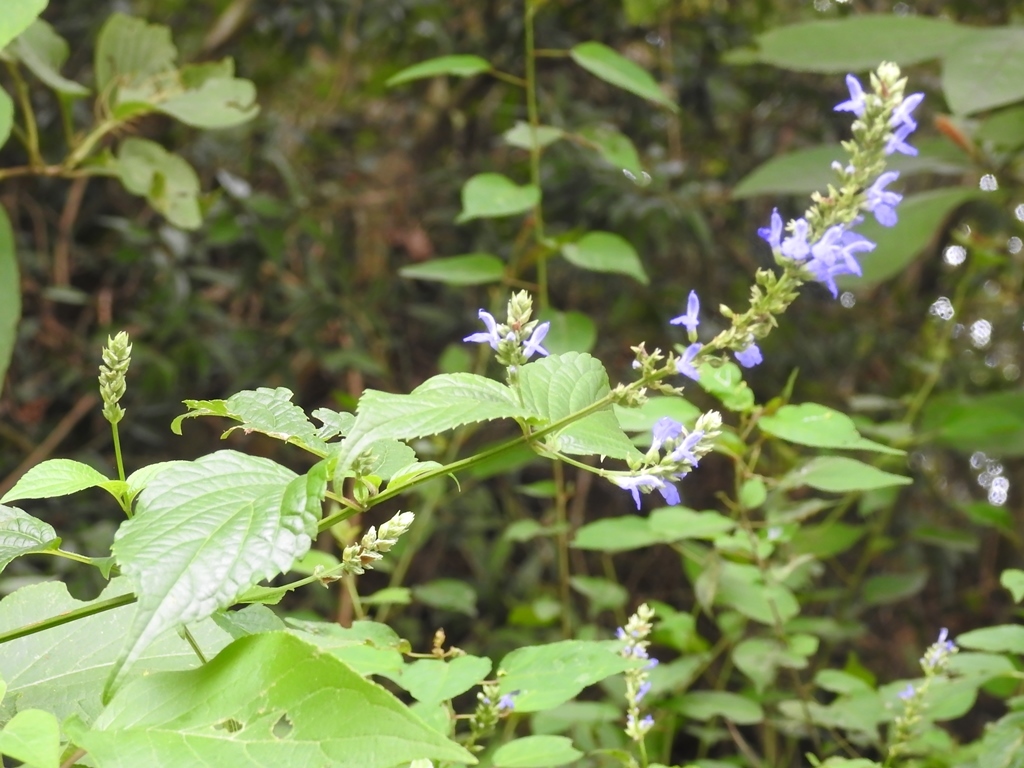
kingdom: Plantae
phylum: Tracheophyta
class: Magnoliopsida
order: Lamiales
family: Lamiaceae
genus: Salvia
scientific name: Salvia connivens
